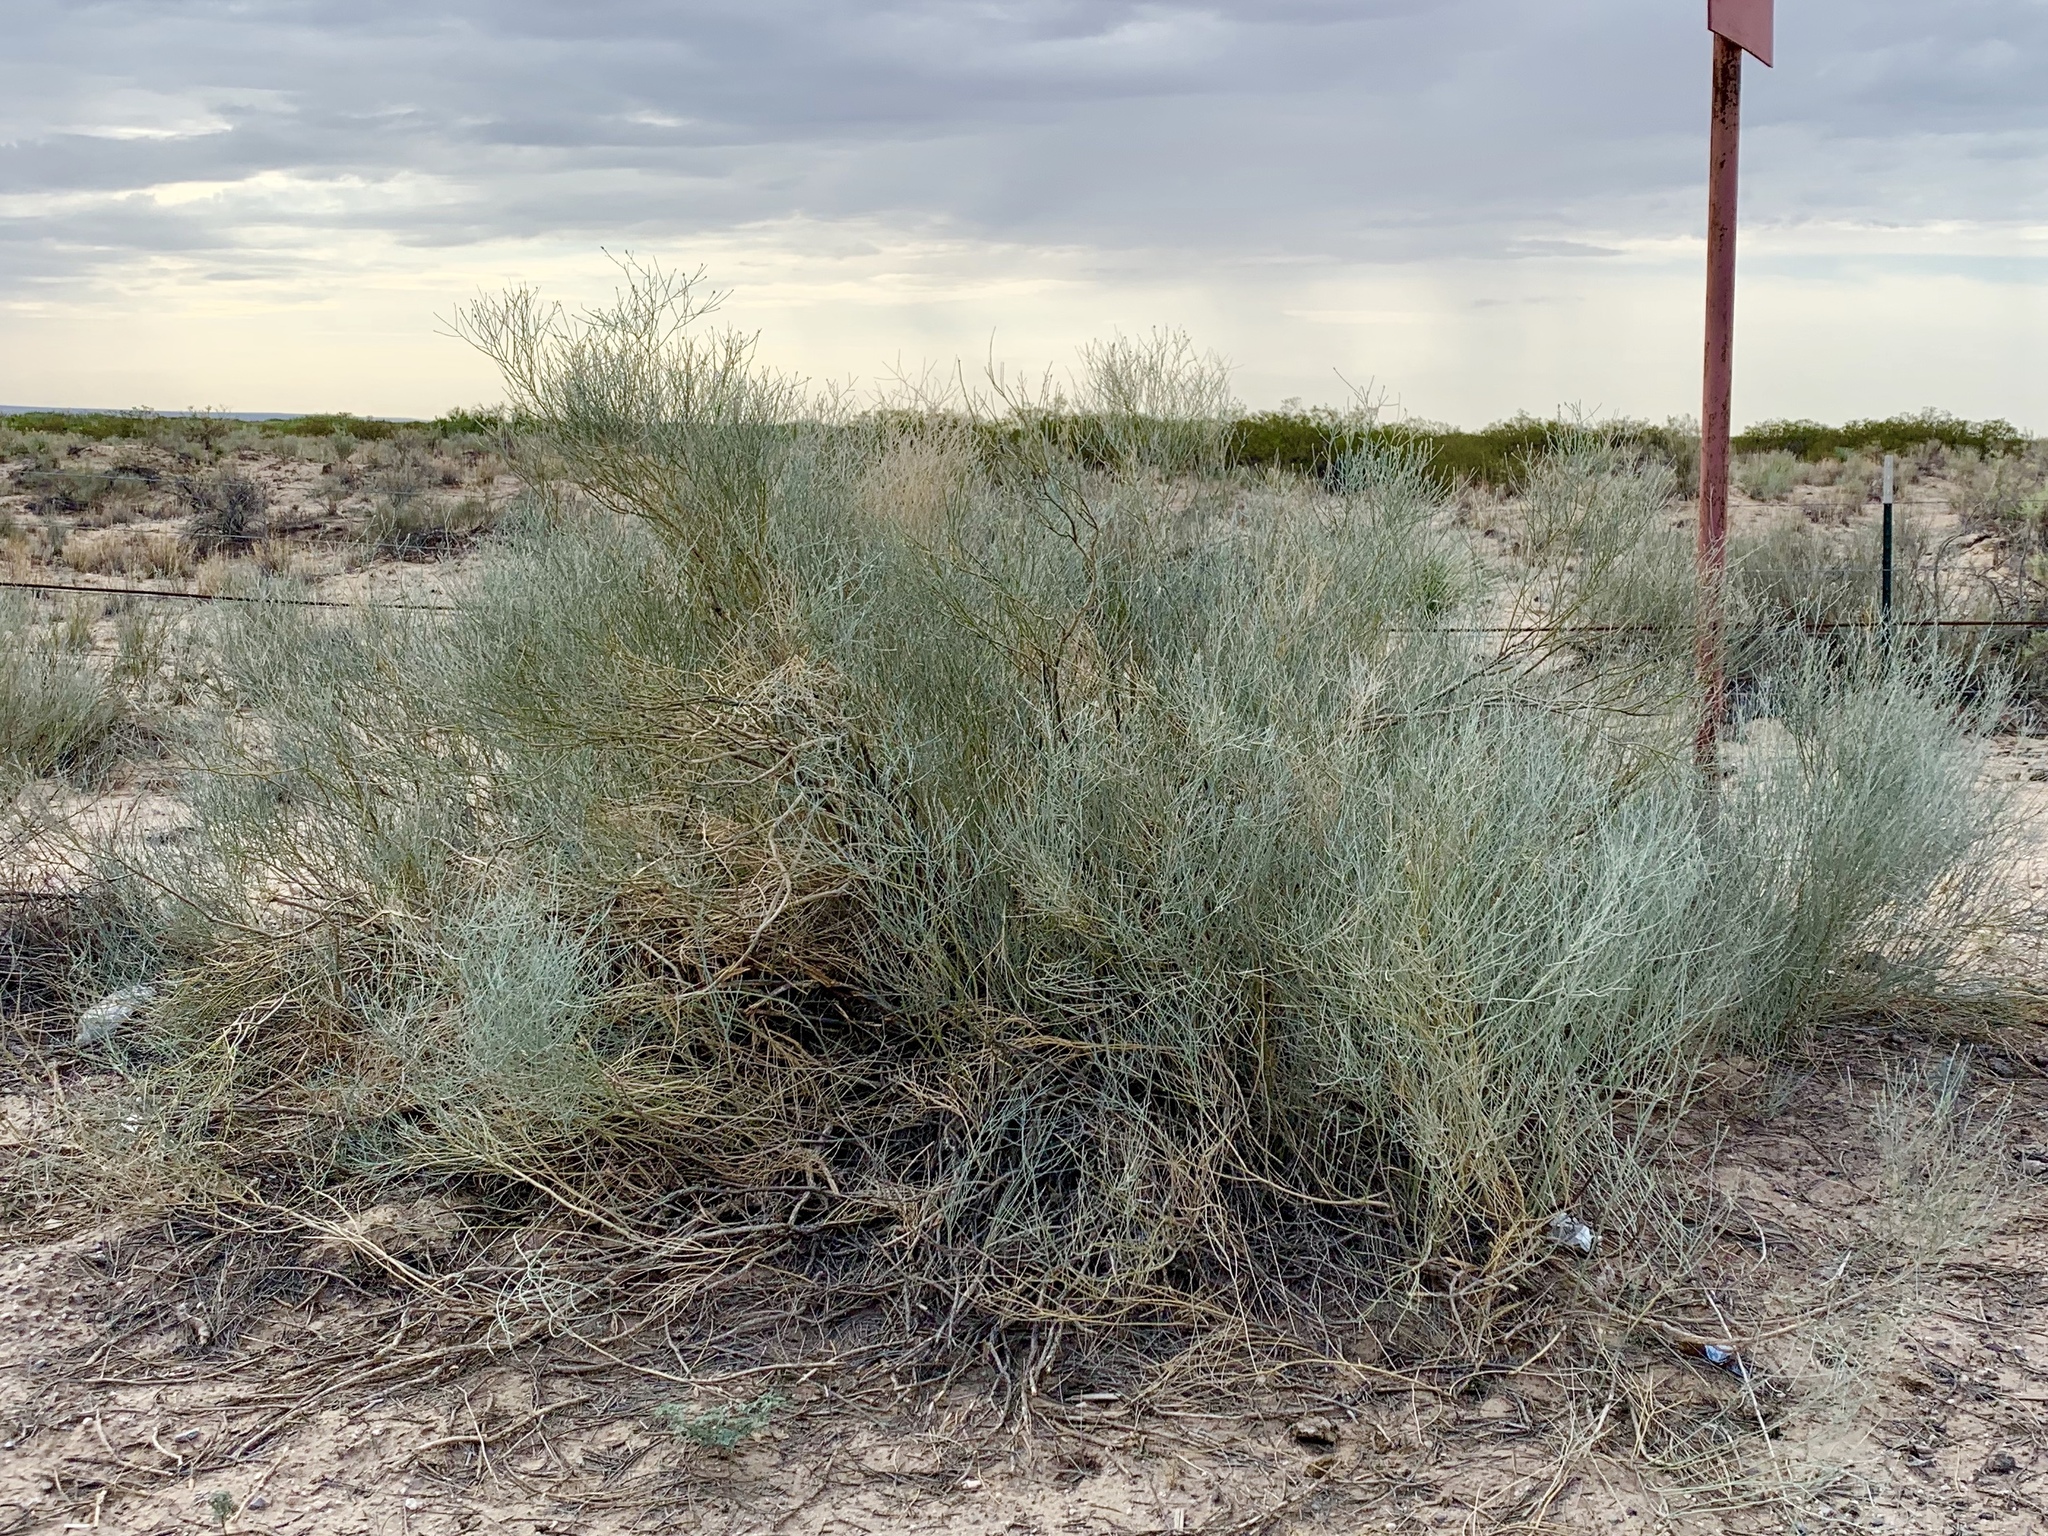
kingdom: Plantae
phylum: Tracheophyta
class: Magnoliopsida
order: Fabales
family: Fabaceae
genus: Psorothamnus
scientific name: Psorothamnus scoparius
